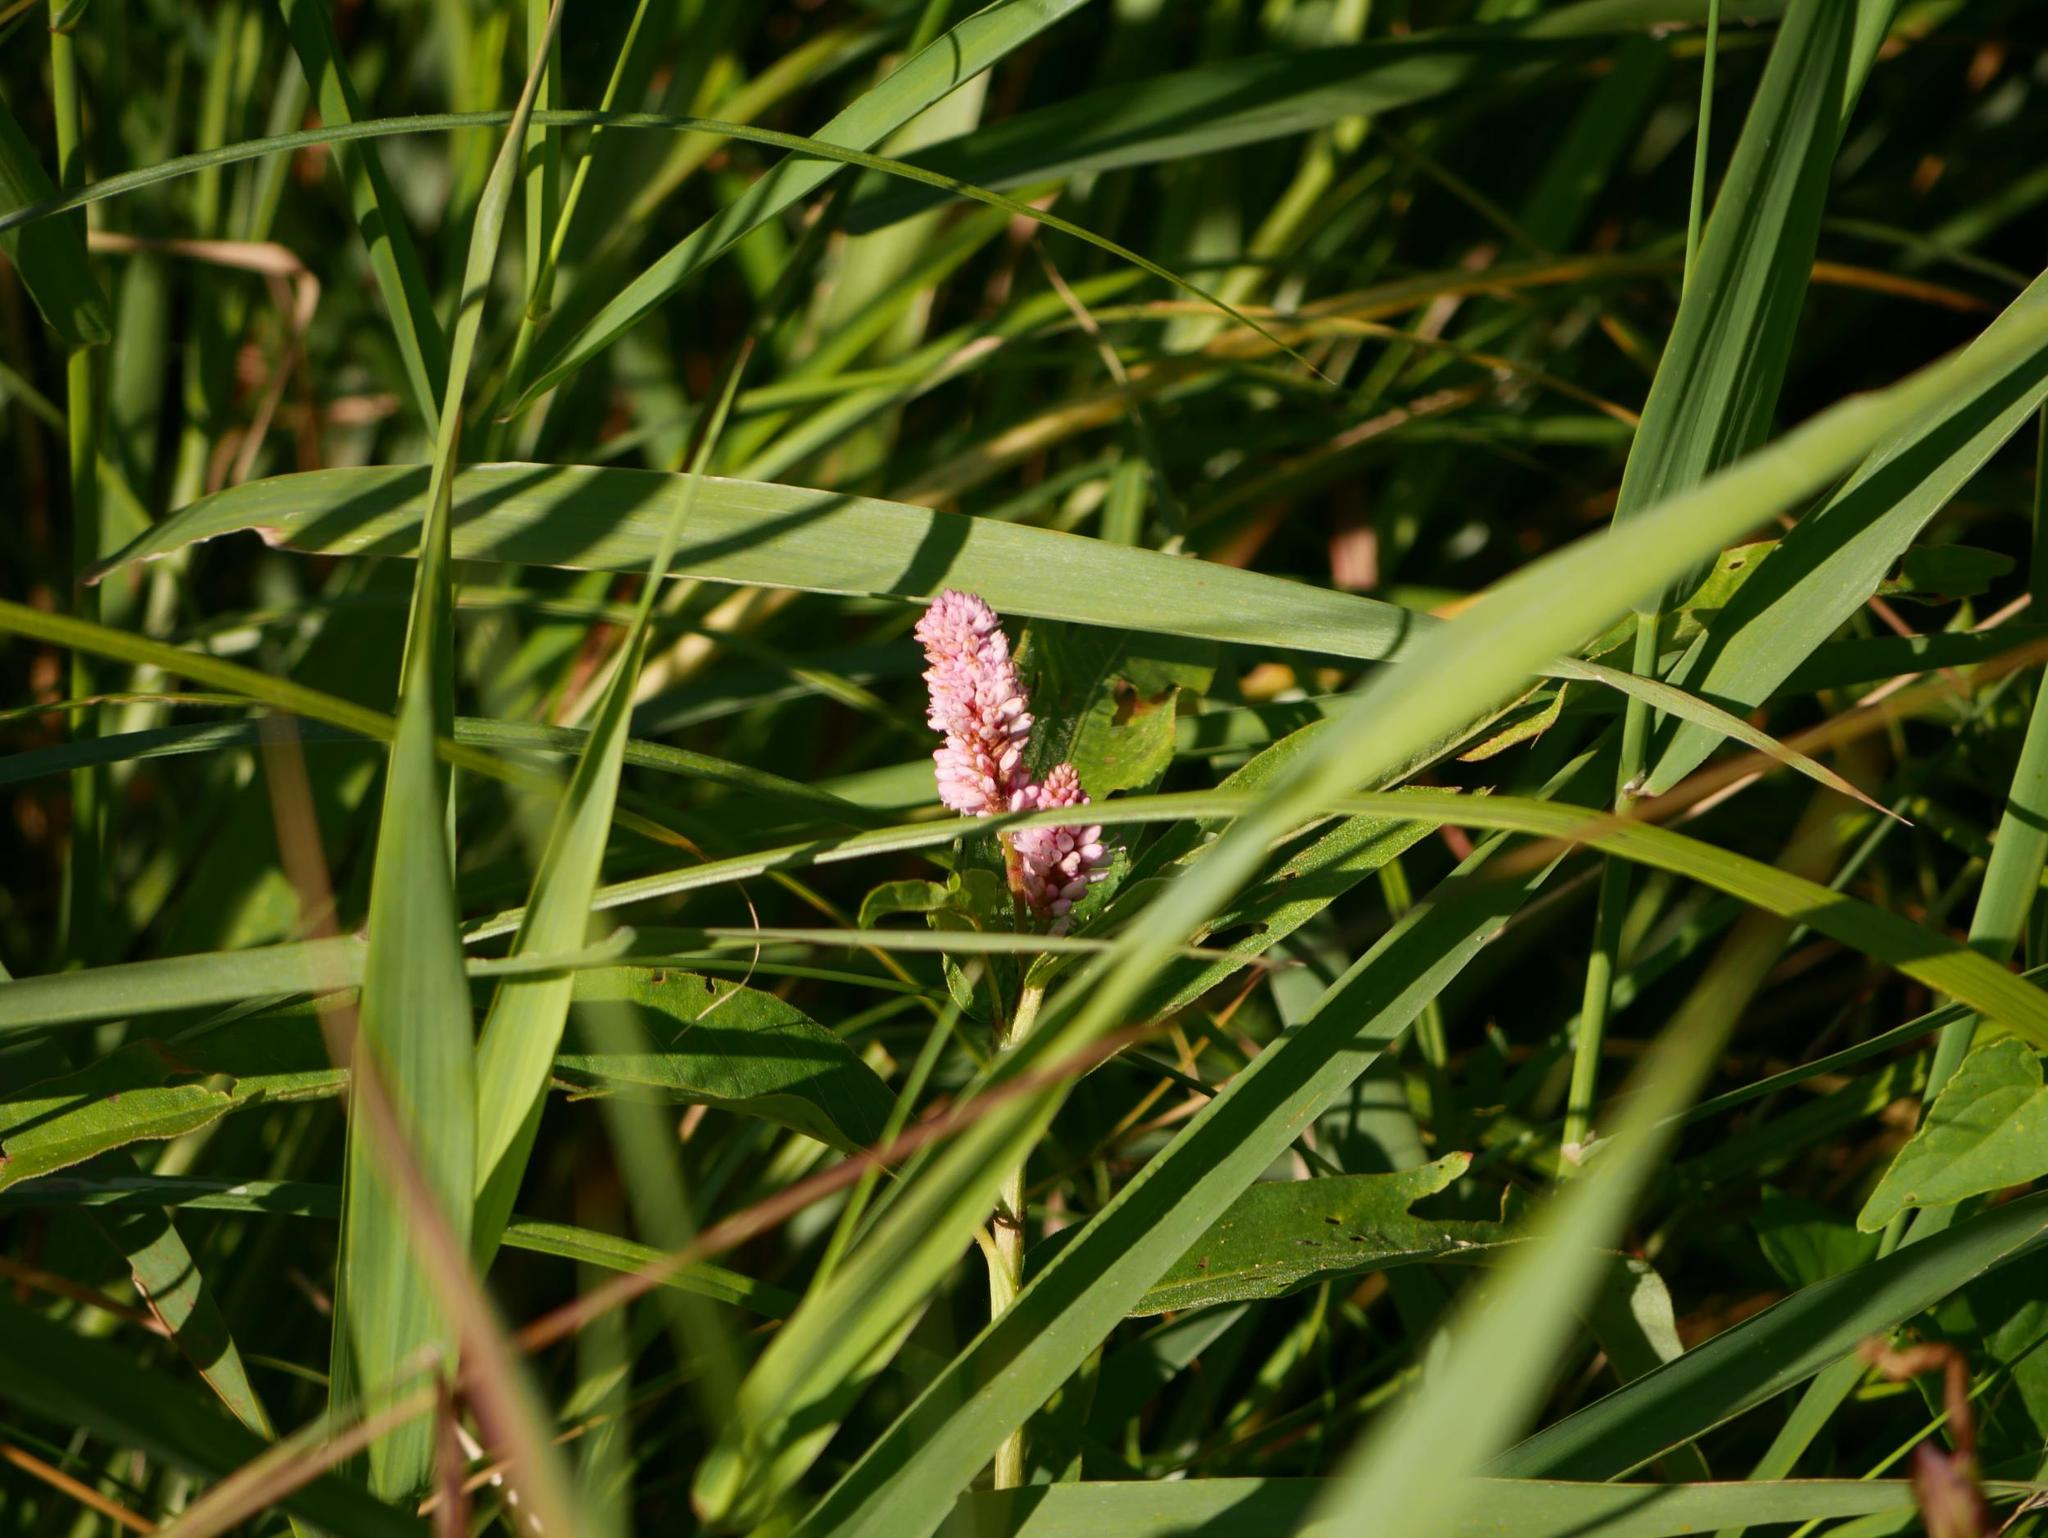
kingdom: Plantae
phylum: Tracheophyta
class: Magnoliopsida
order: Caryophyllales
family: Polygonaceae
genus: Persicaria
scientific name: Persicaria amphibia
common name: Amphibious bistort
